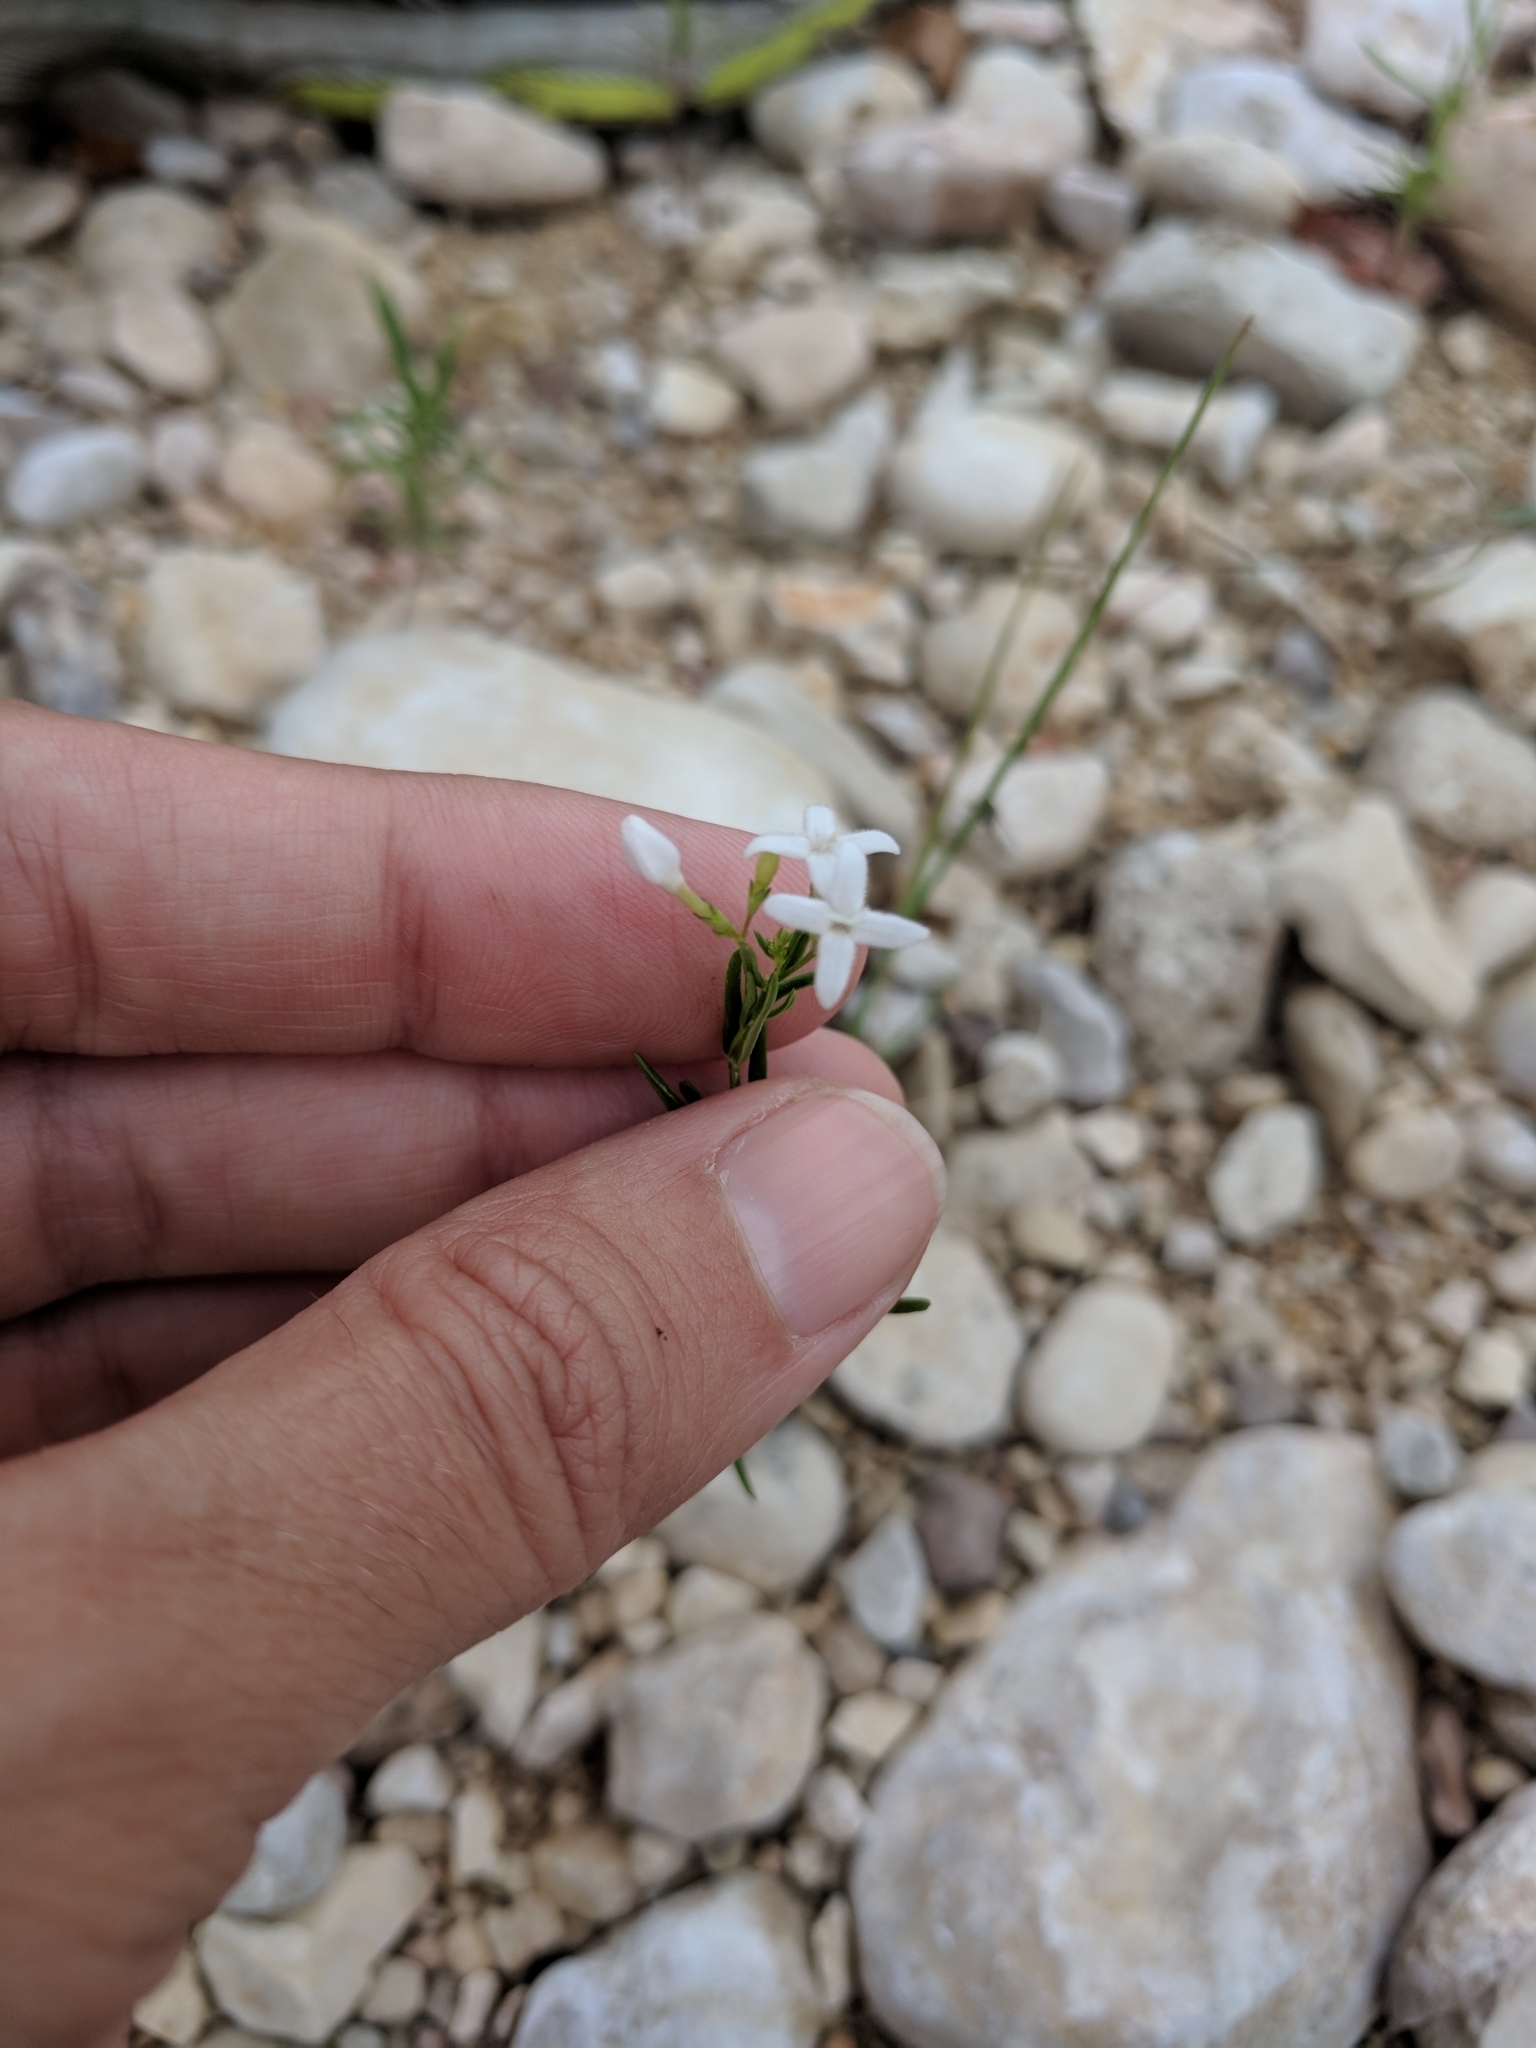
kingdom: Plantae
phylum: Tracheophyta
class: Magnoliopsida
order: Gentianales
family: Rubiaceae
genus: Stenaria
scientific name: Stenaria nigricans
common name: Diamondflowers
